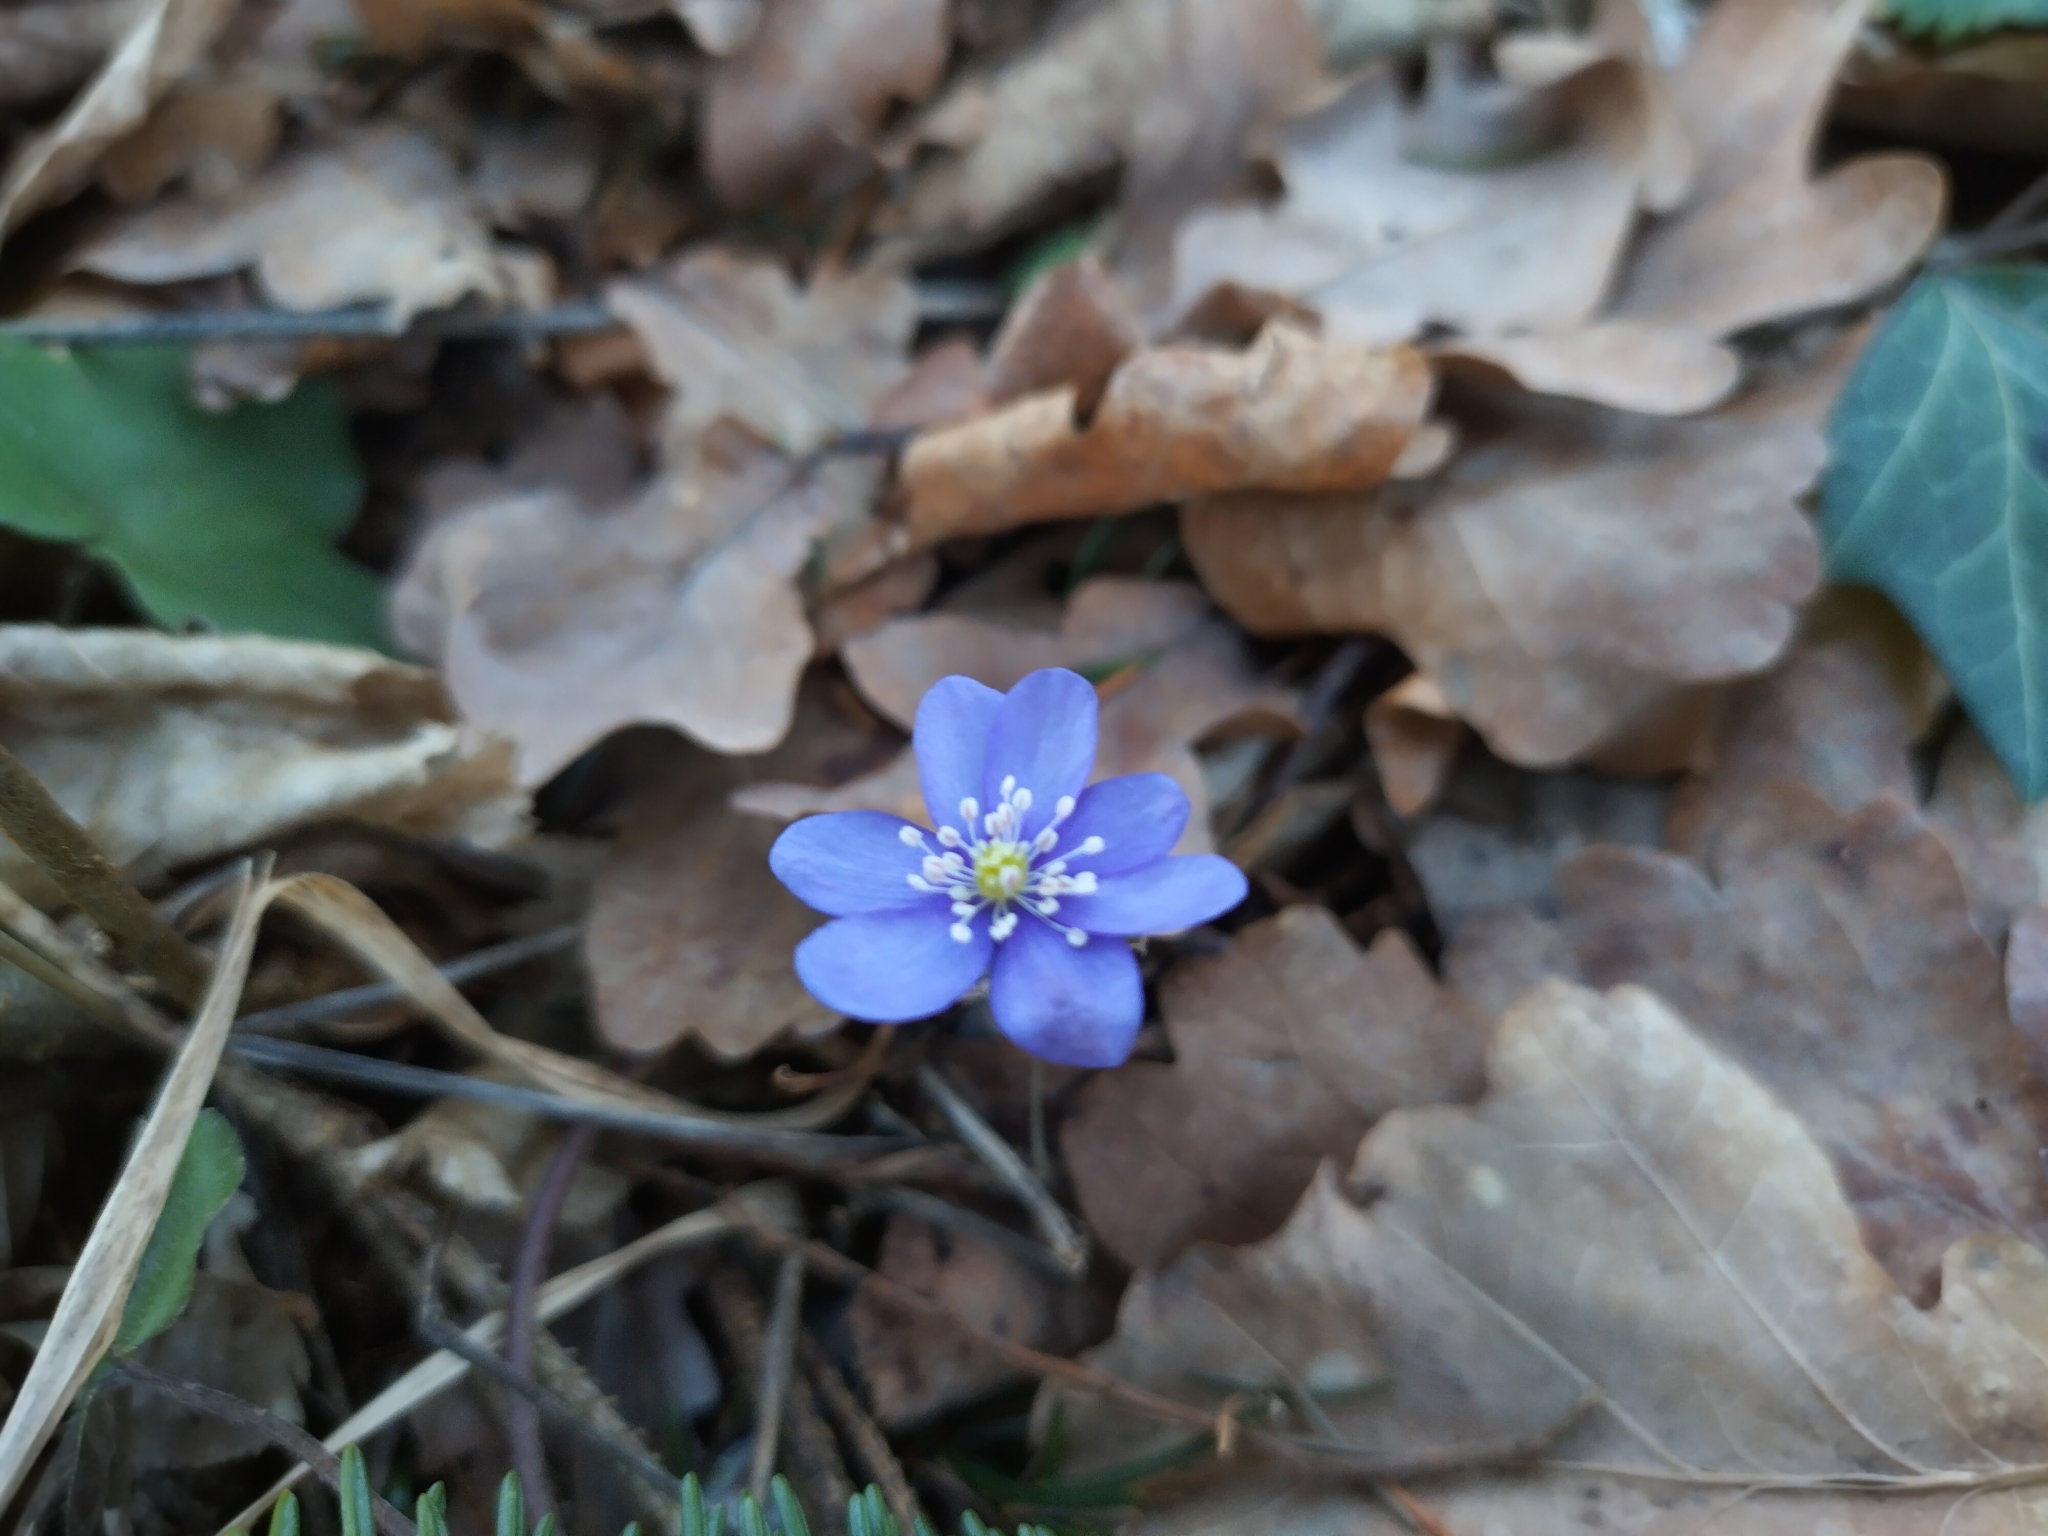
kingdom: Plantae
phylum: Tracheophyta
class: Magnoliopsida
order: Ranunculales
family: Ranunculaceae
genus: Hepatica
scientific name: Hepatica nobilis
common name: Liverleaf
